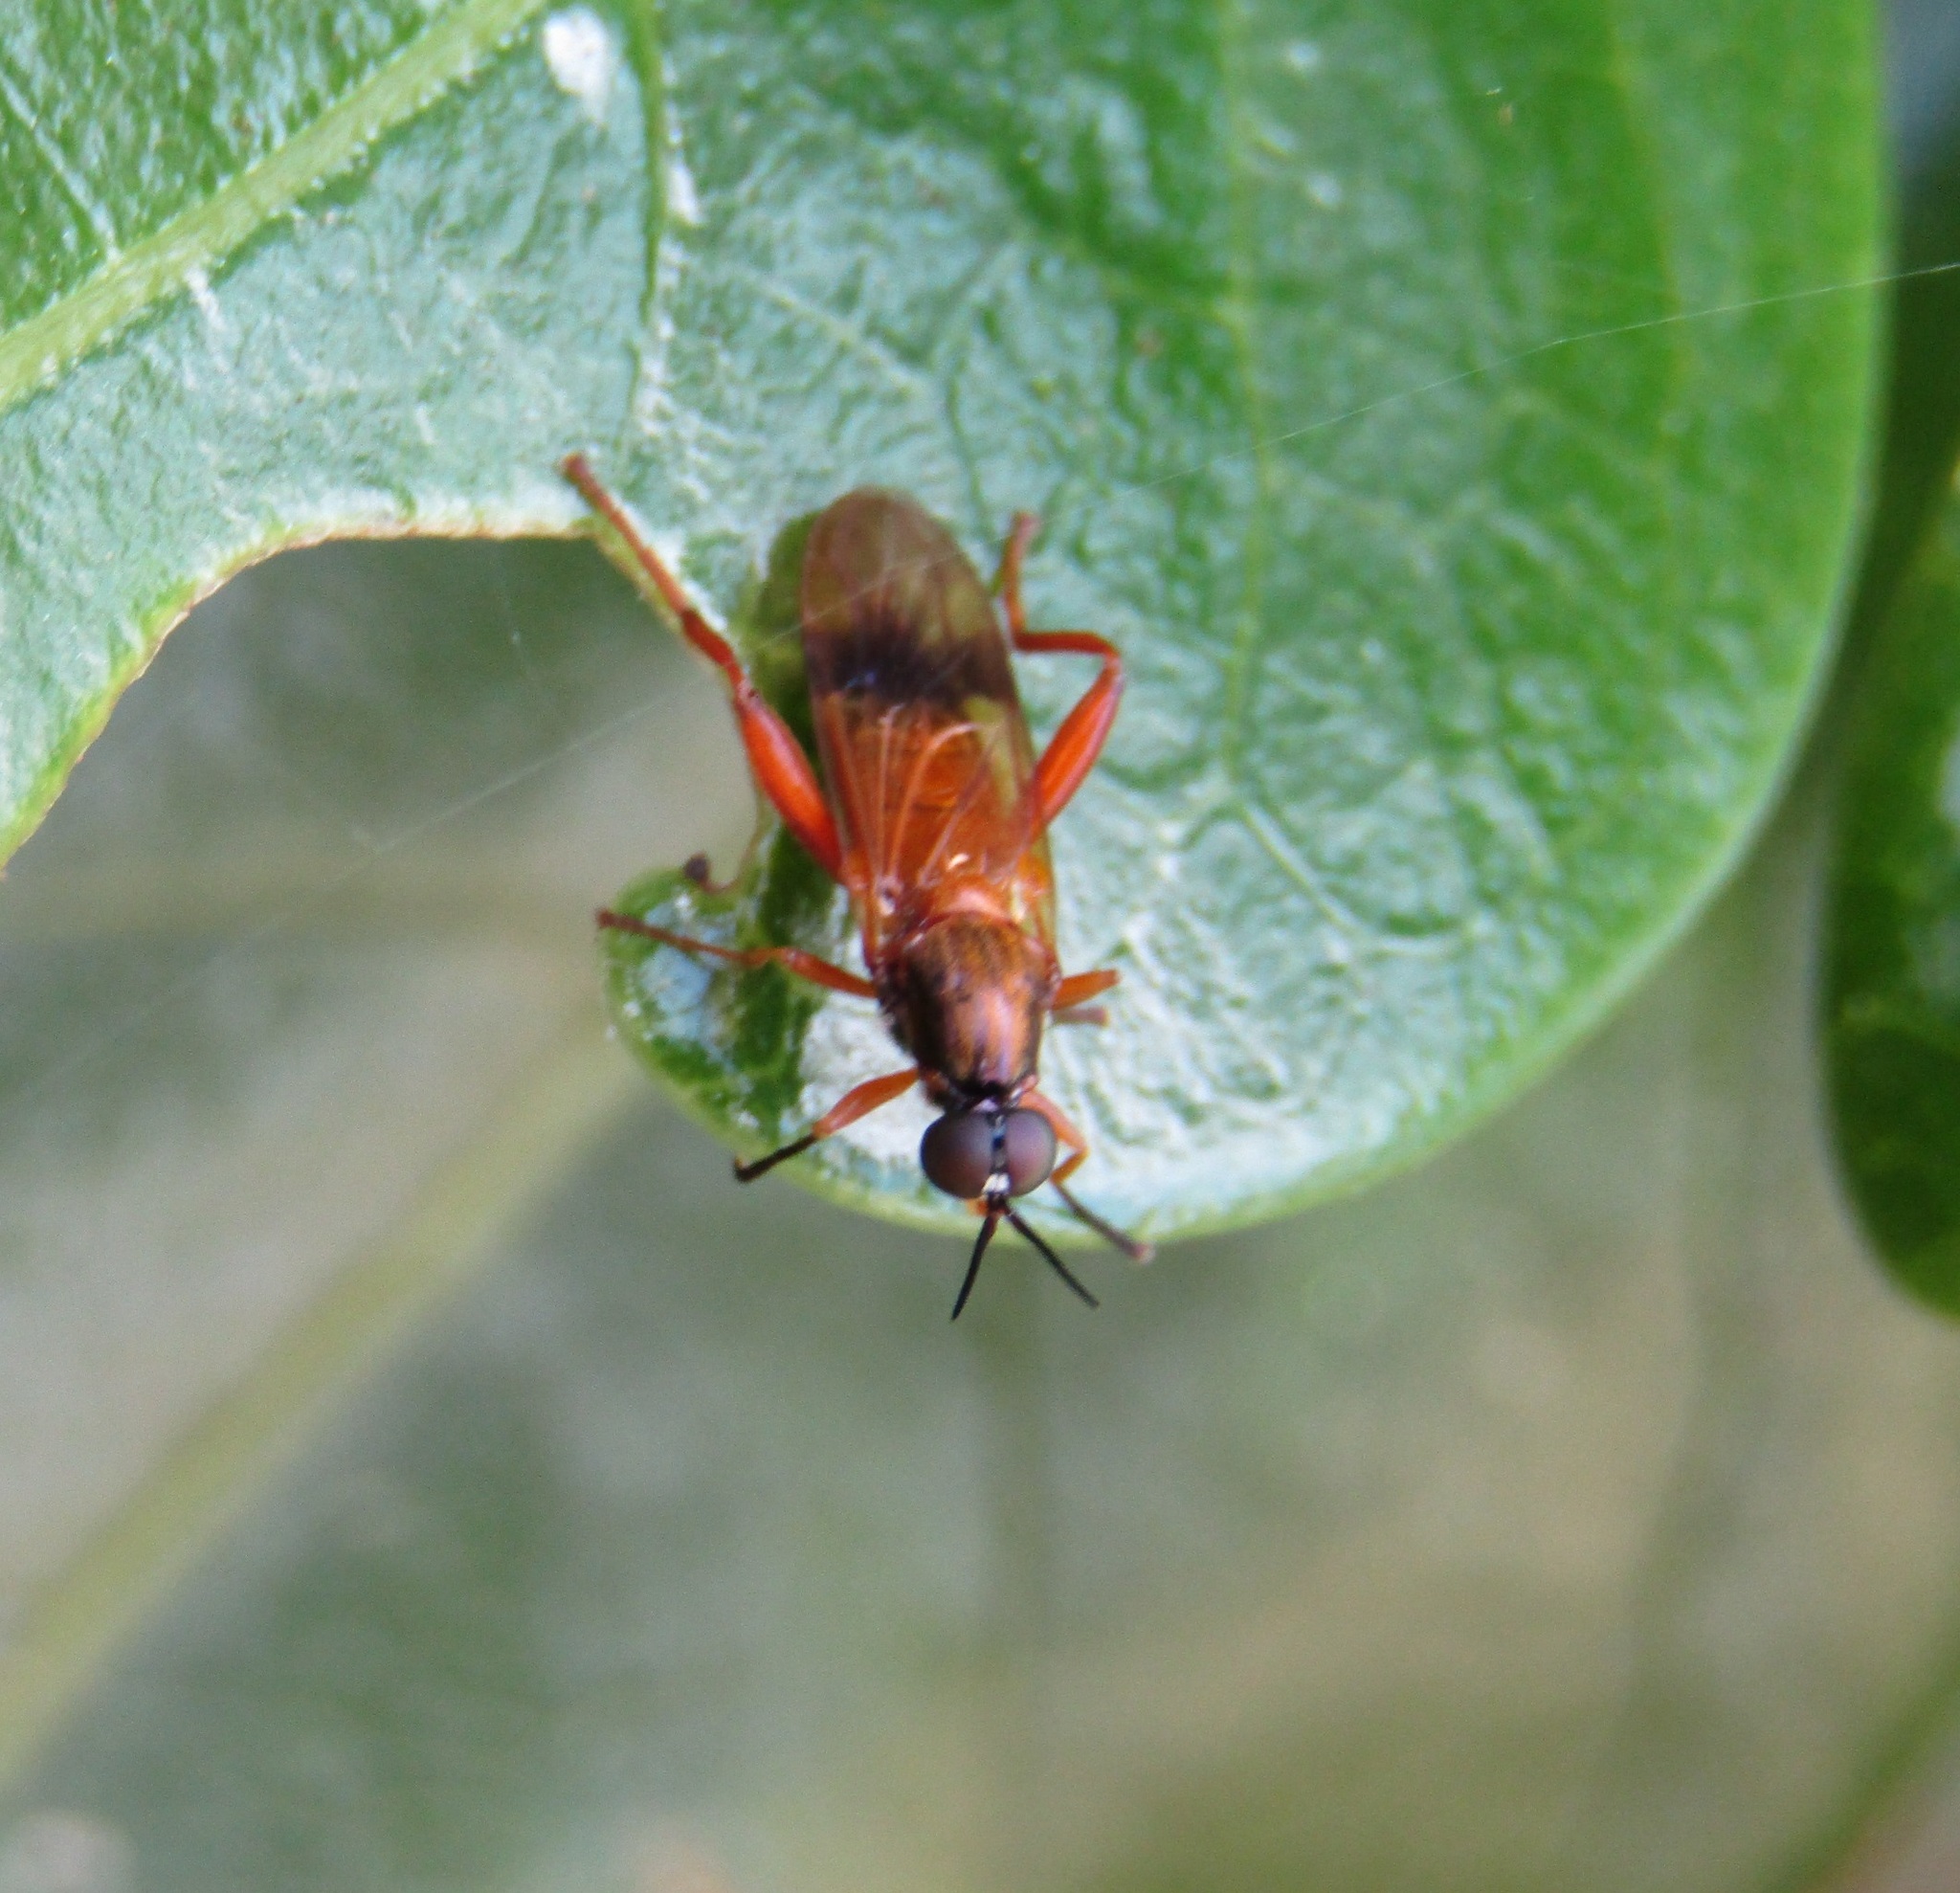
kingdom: Animalia
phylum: Arthropoda
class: Insecta
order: Diptera
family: Stratiomyidae
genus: Benhamyia
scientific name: Benhamyia apicalis
